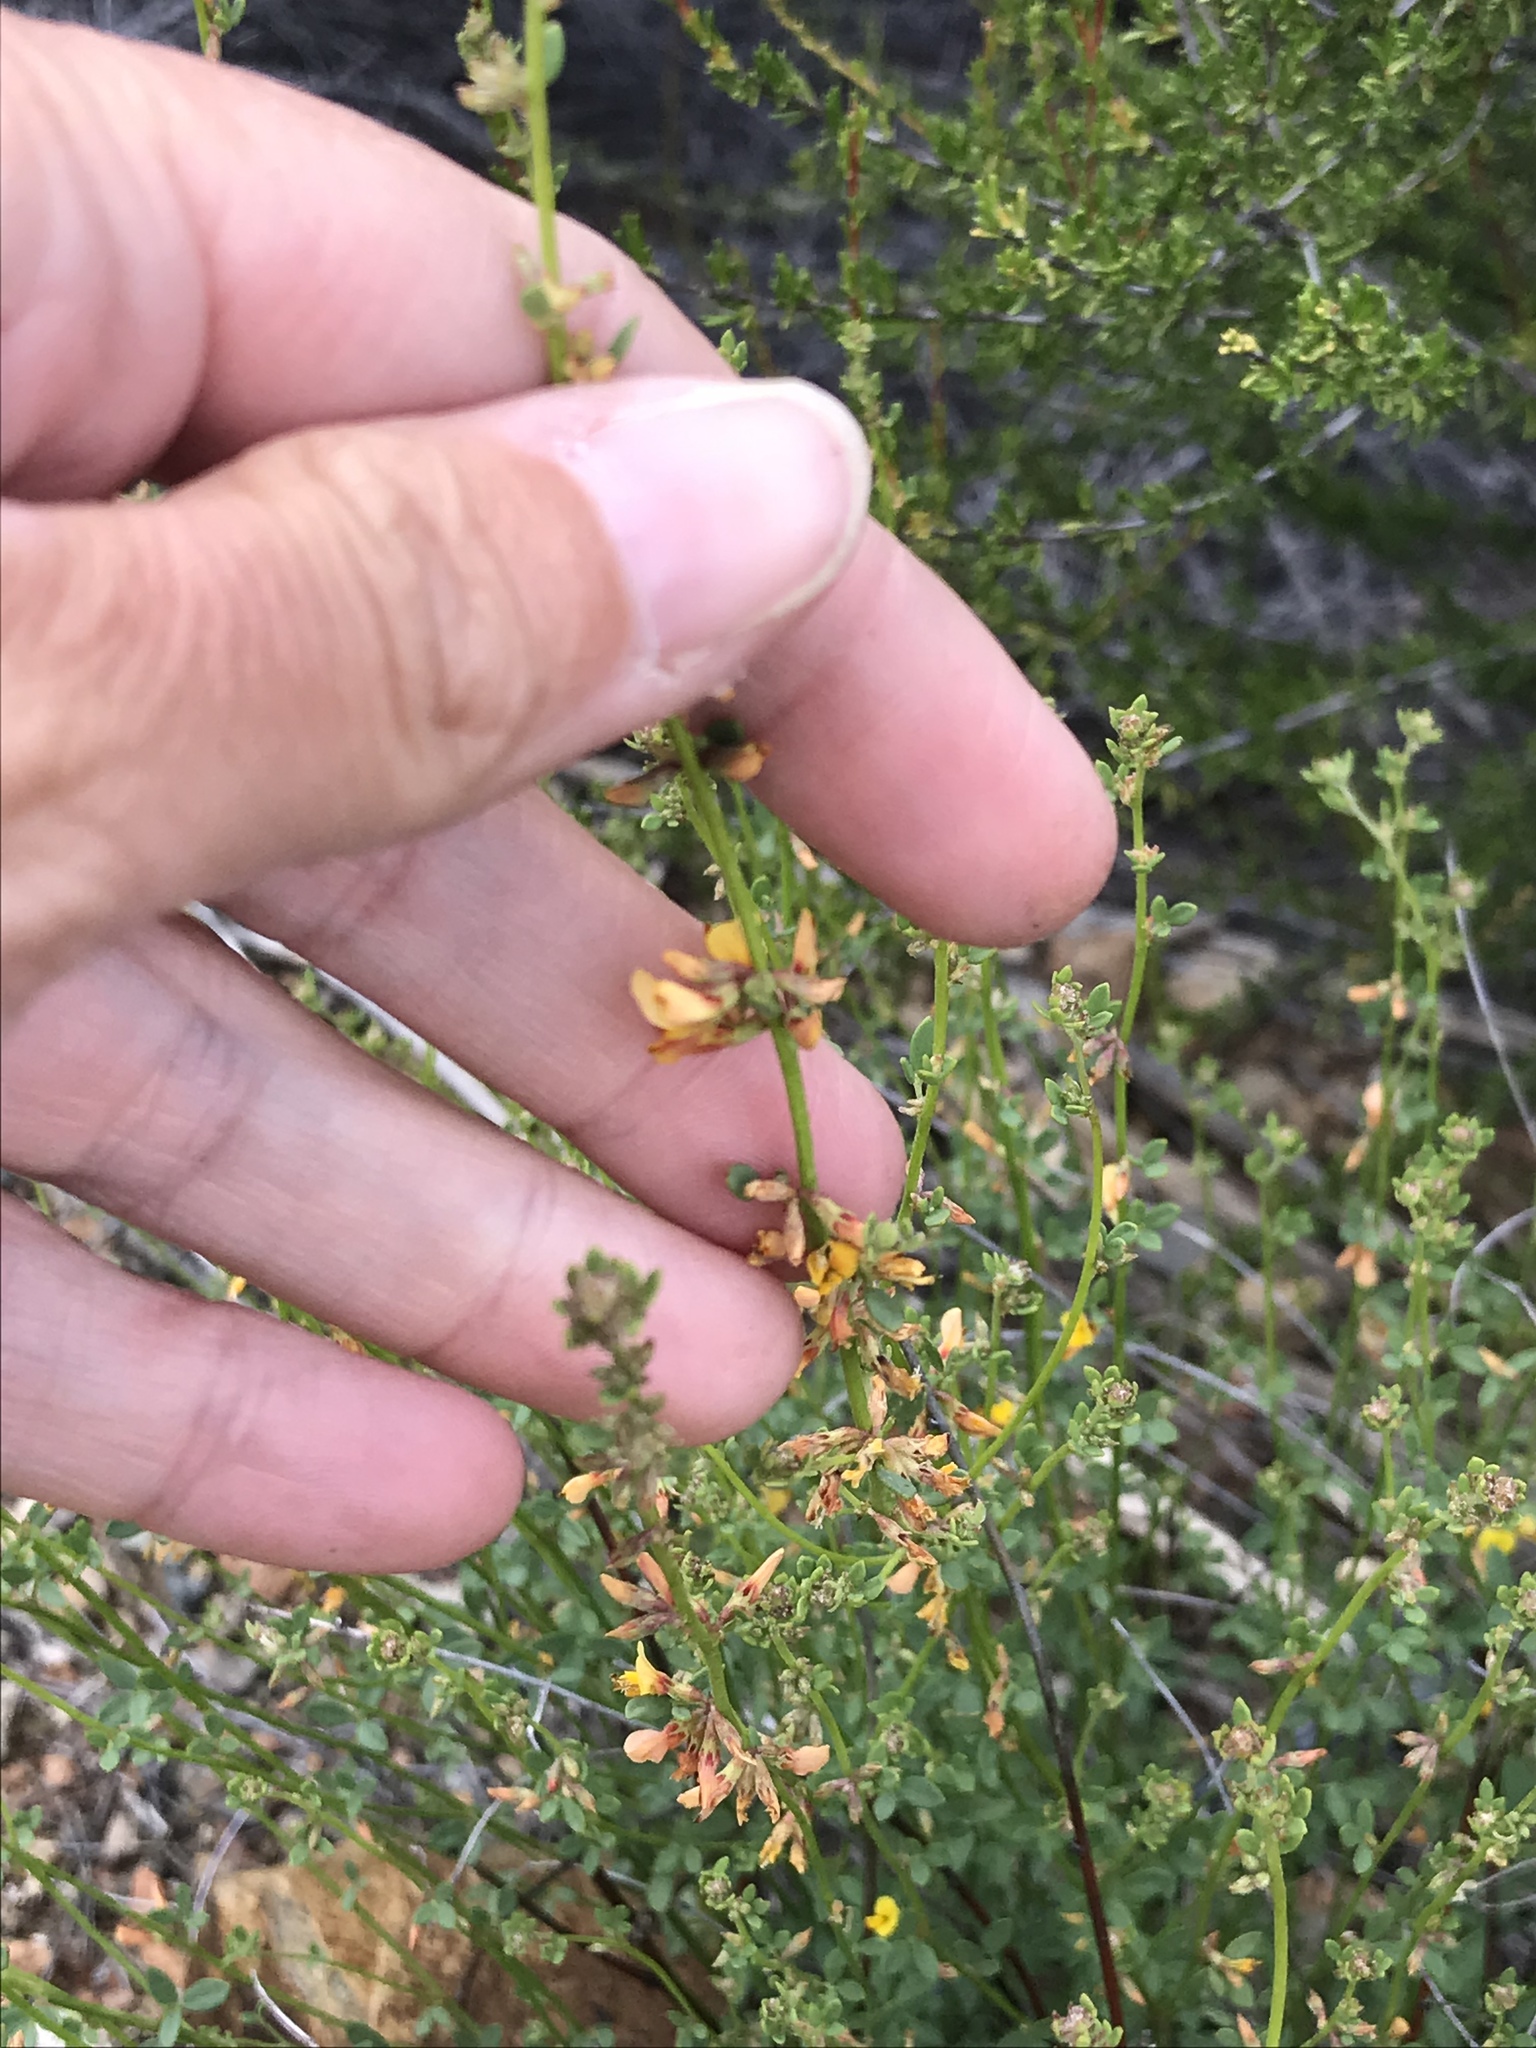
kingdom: Plantae
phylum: Tracheophyta
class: Magnoliopsida
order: Fabales
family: Fabaceae
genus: Acmispon
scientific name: Acmispon glaber
